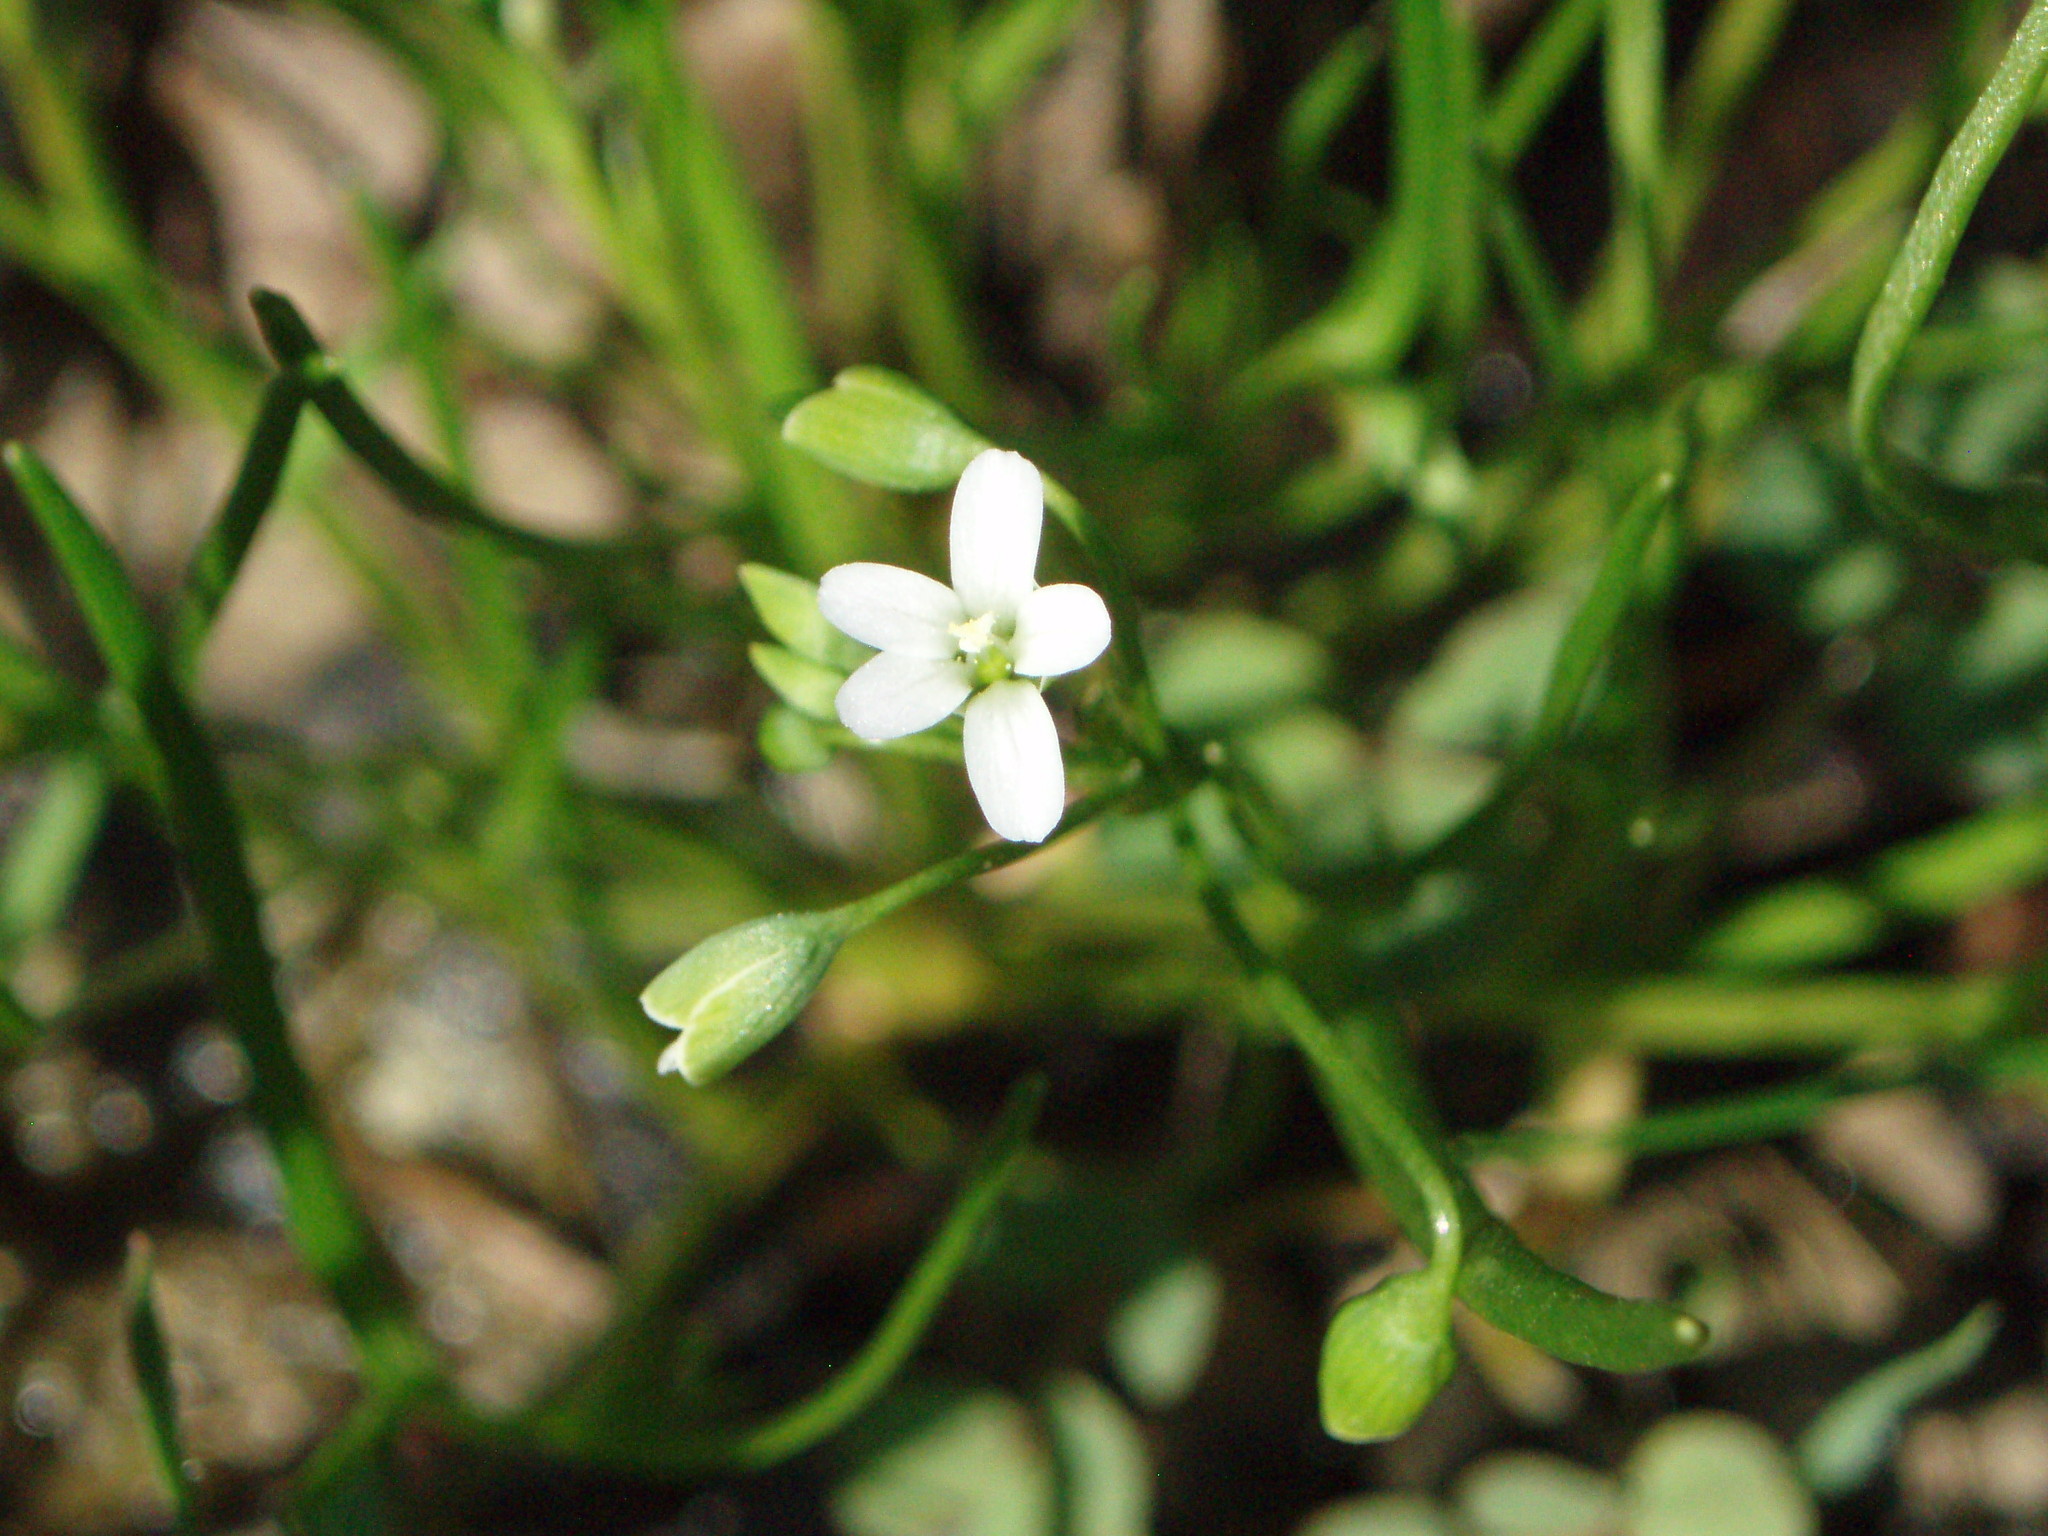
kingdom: Plantae
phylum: Tracheophyta
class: Magnoliopsida
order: Caryophyllales
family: Montiaceae
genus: Montia
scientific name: Montia linearis
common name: Narrow-leaf montia
